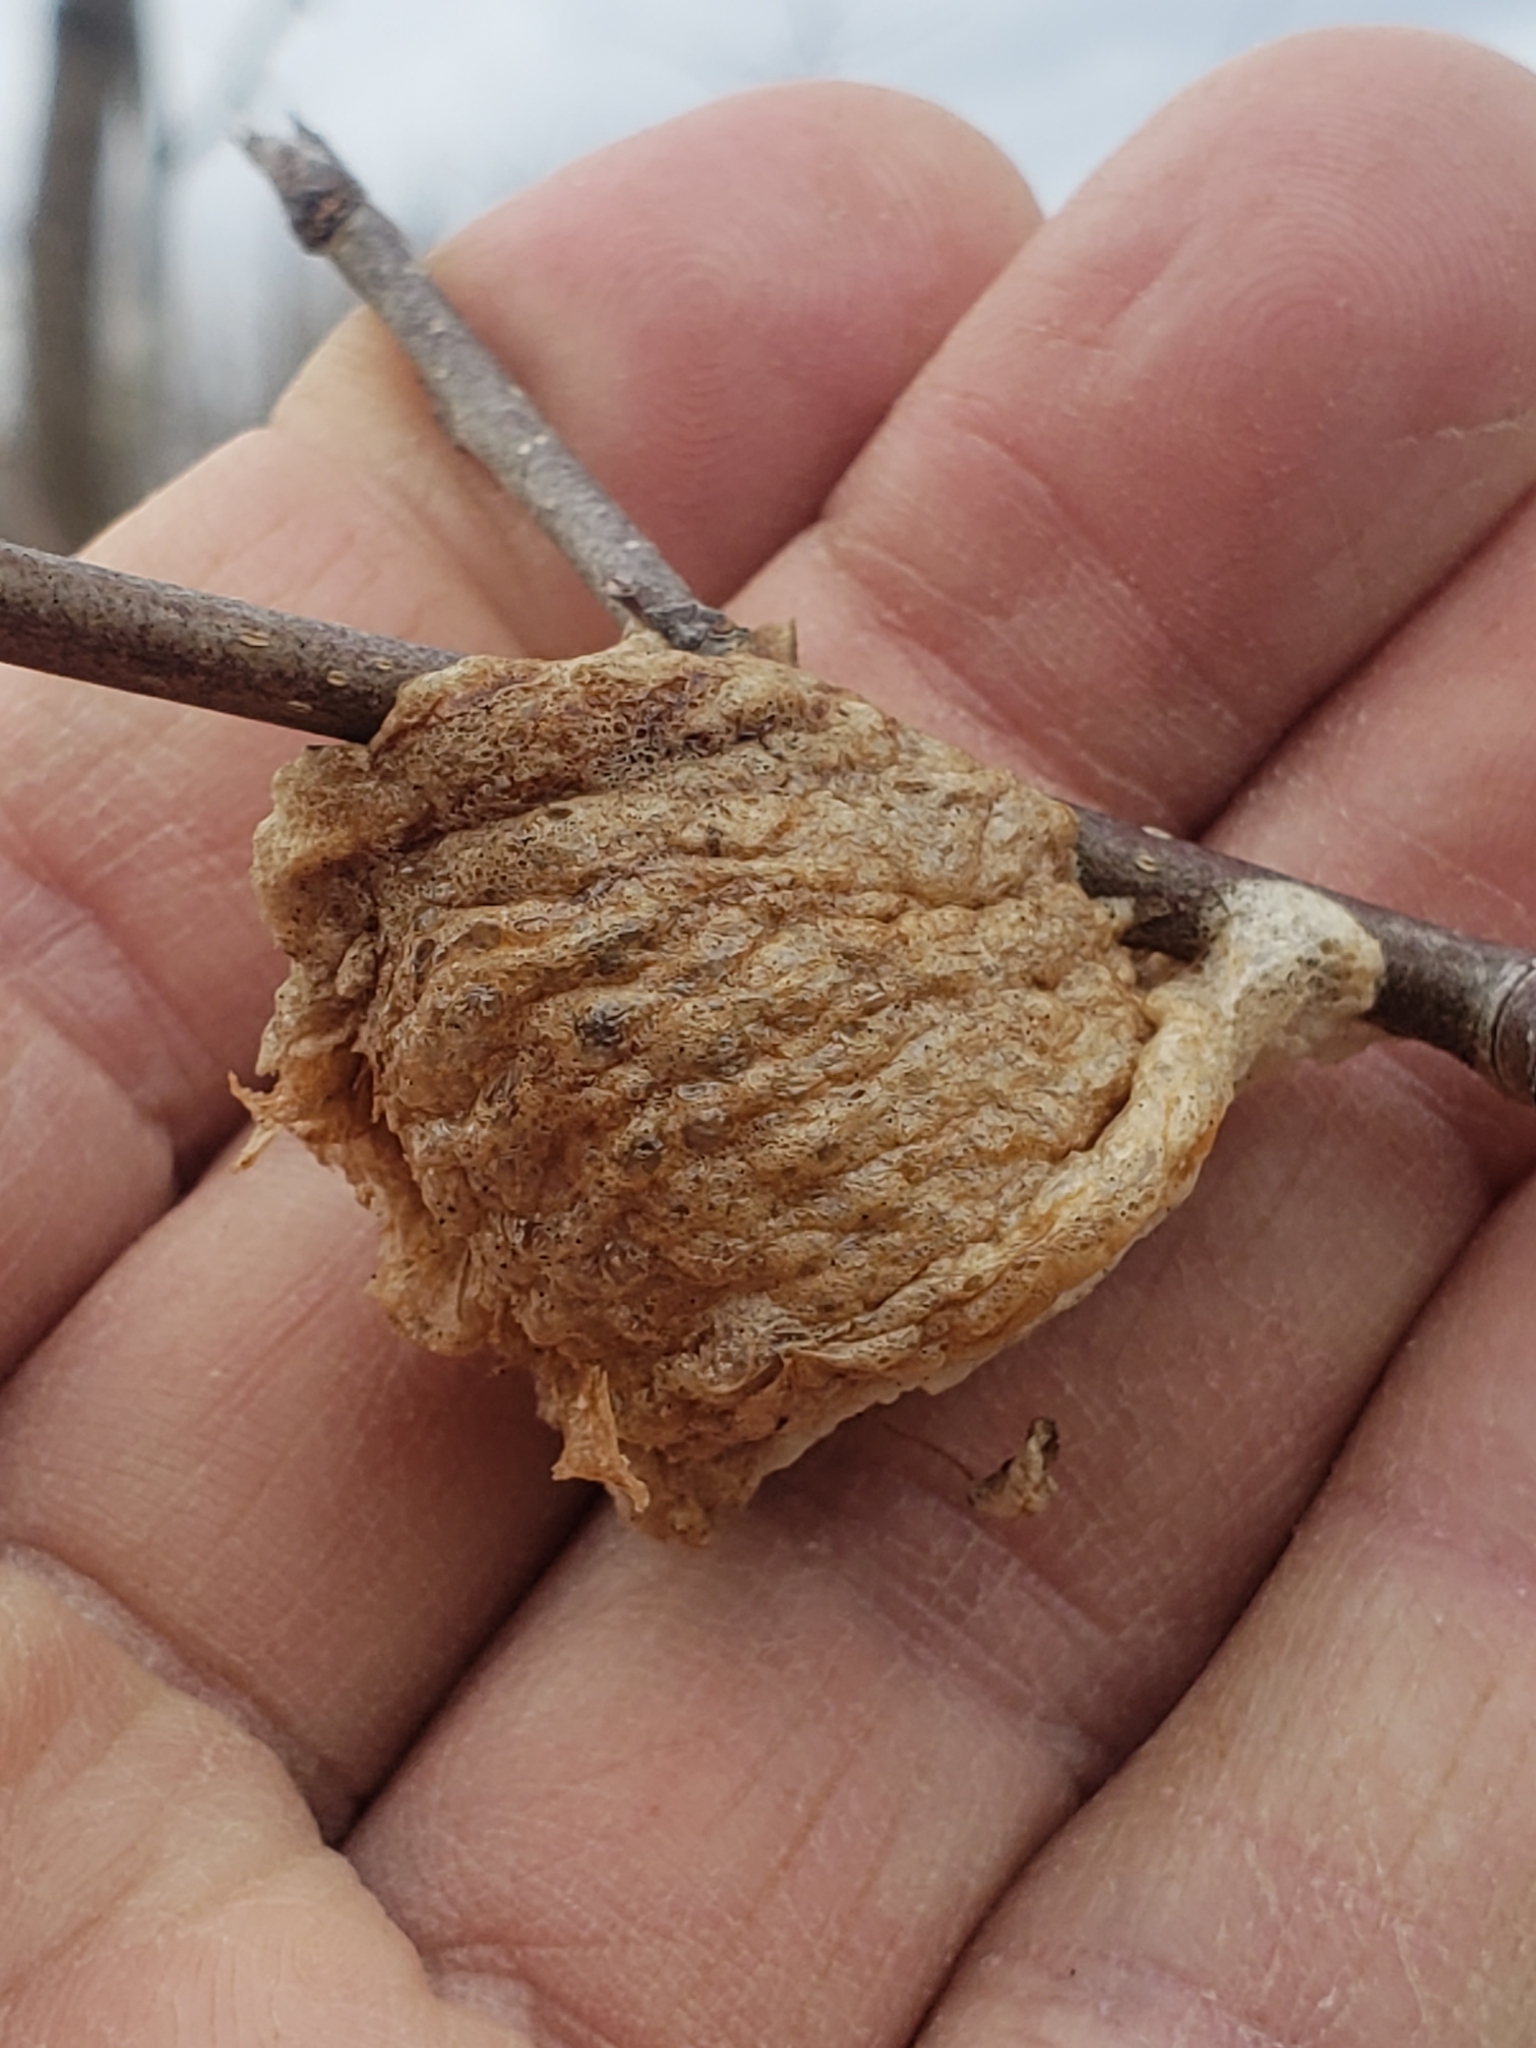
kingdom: Animalia
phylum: Arthropoda
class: Insecta
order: Mantodea
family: Mantidae
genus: Tenodera
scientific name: Tenodera sinensis
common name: Chinese mantis
